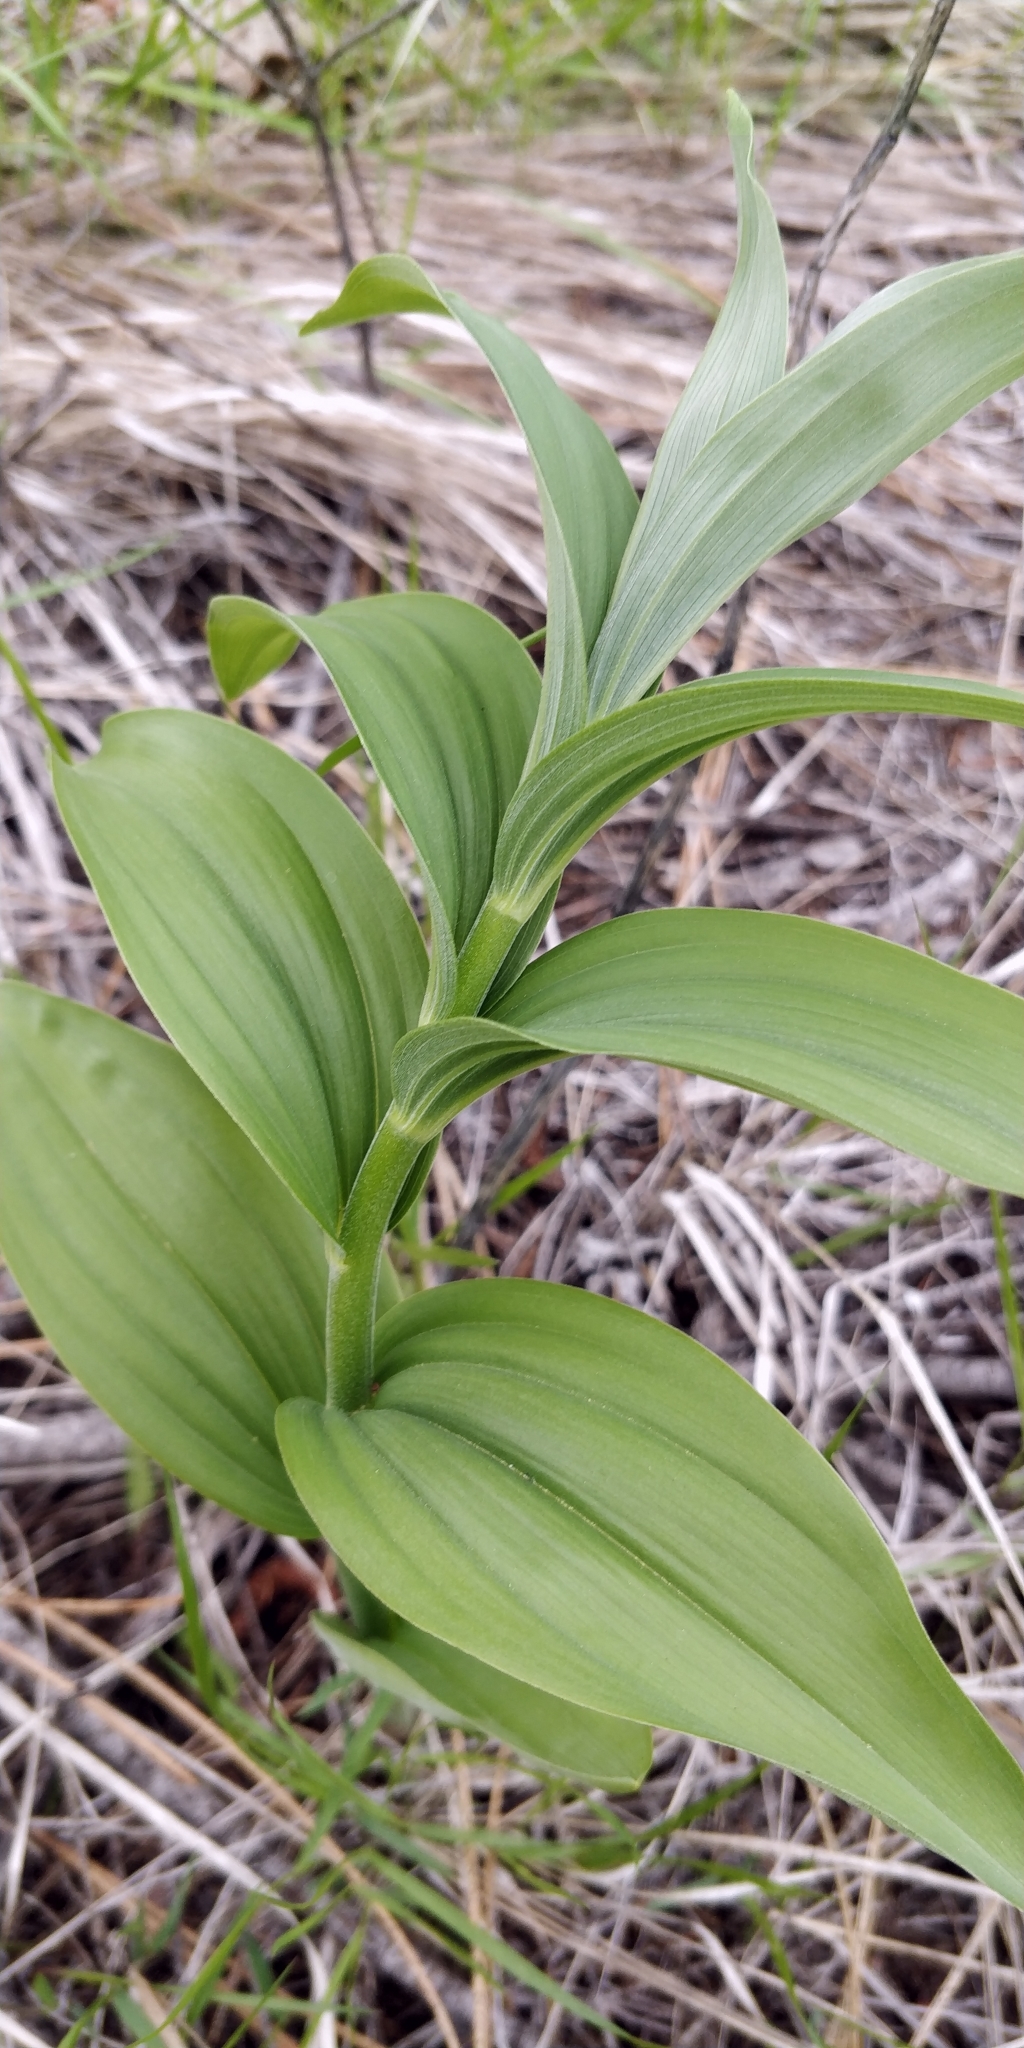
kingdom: Plantae
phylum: Tracheophyta
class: Liliopsida
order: Asparagales
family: Asparagaceae
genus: Maianthemum
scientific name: Maianthemum racemosum
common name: False spikenard
